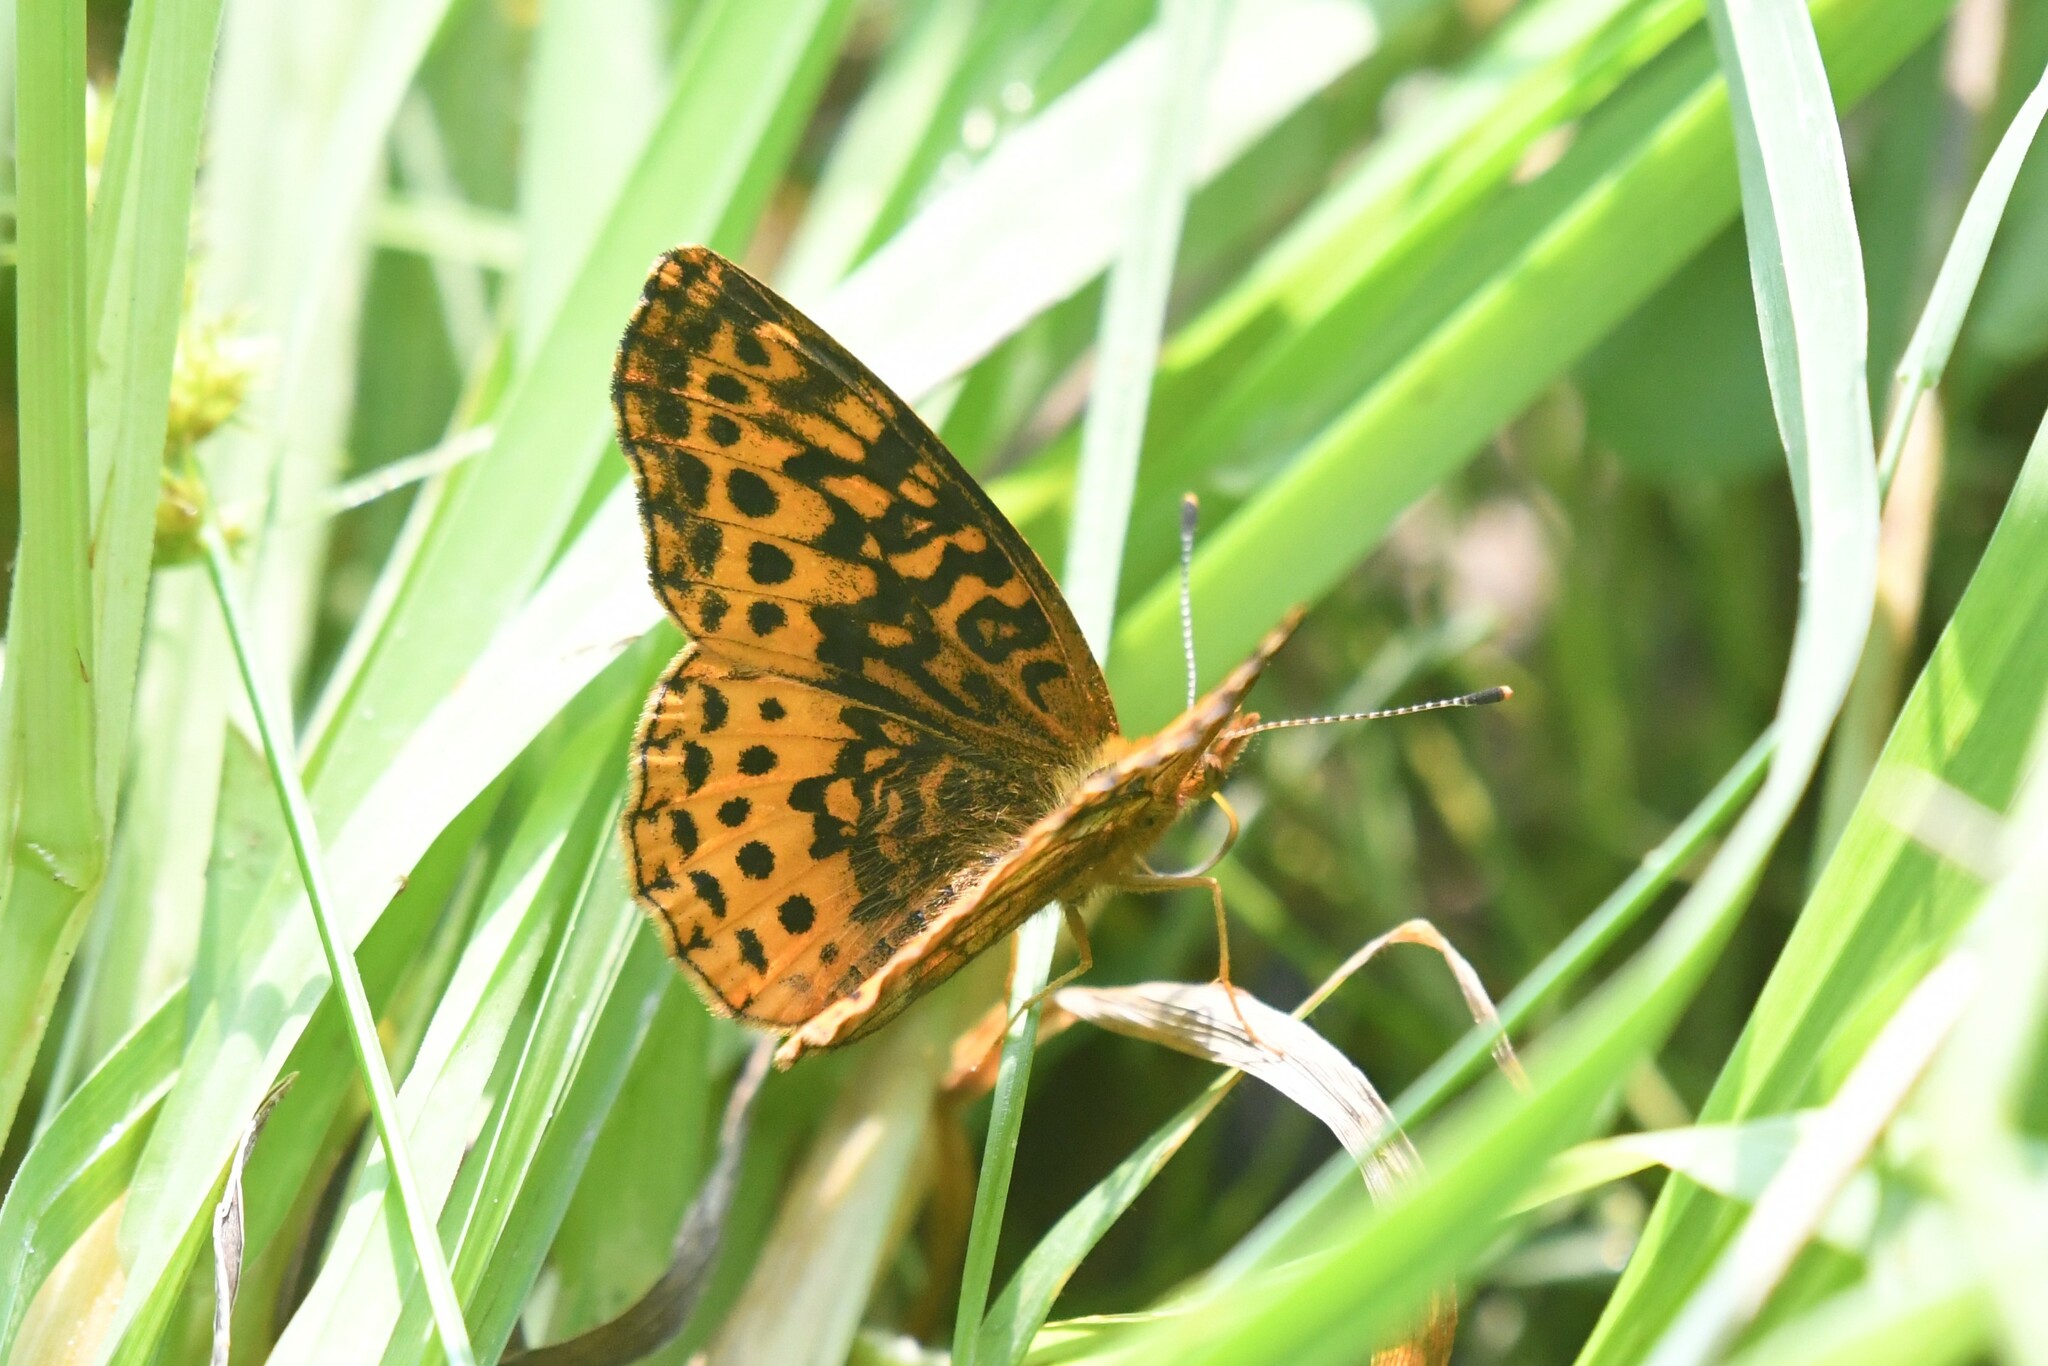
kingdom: Animalia
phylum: Arthropoda
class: Insecta
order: Lepidoptera
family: Nymphalidae
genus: Clossiana
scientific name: Clossiana toddi
